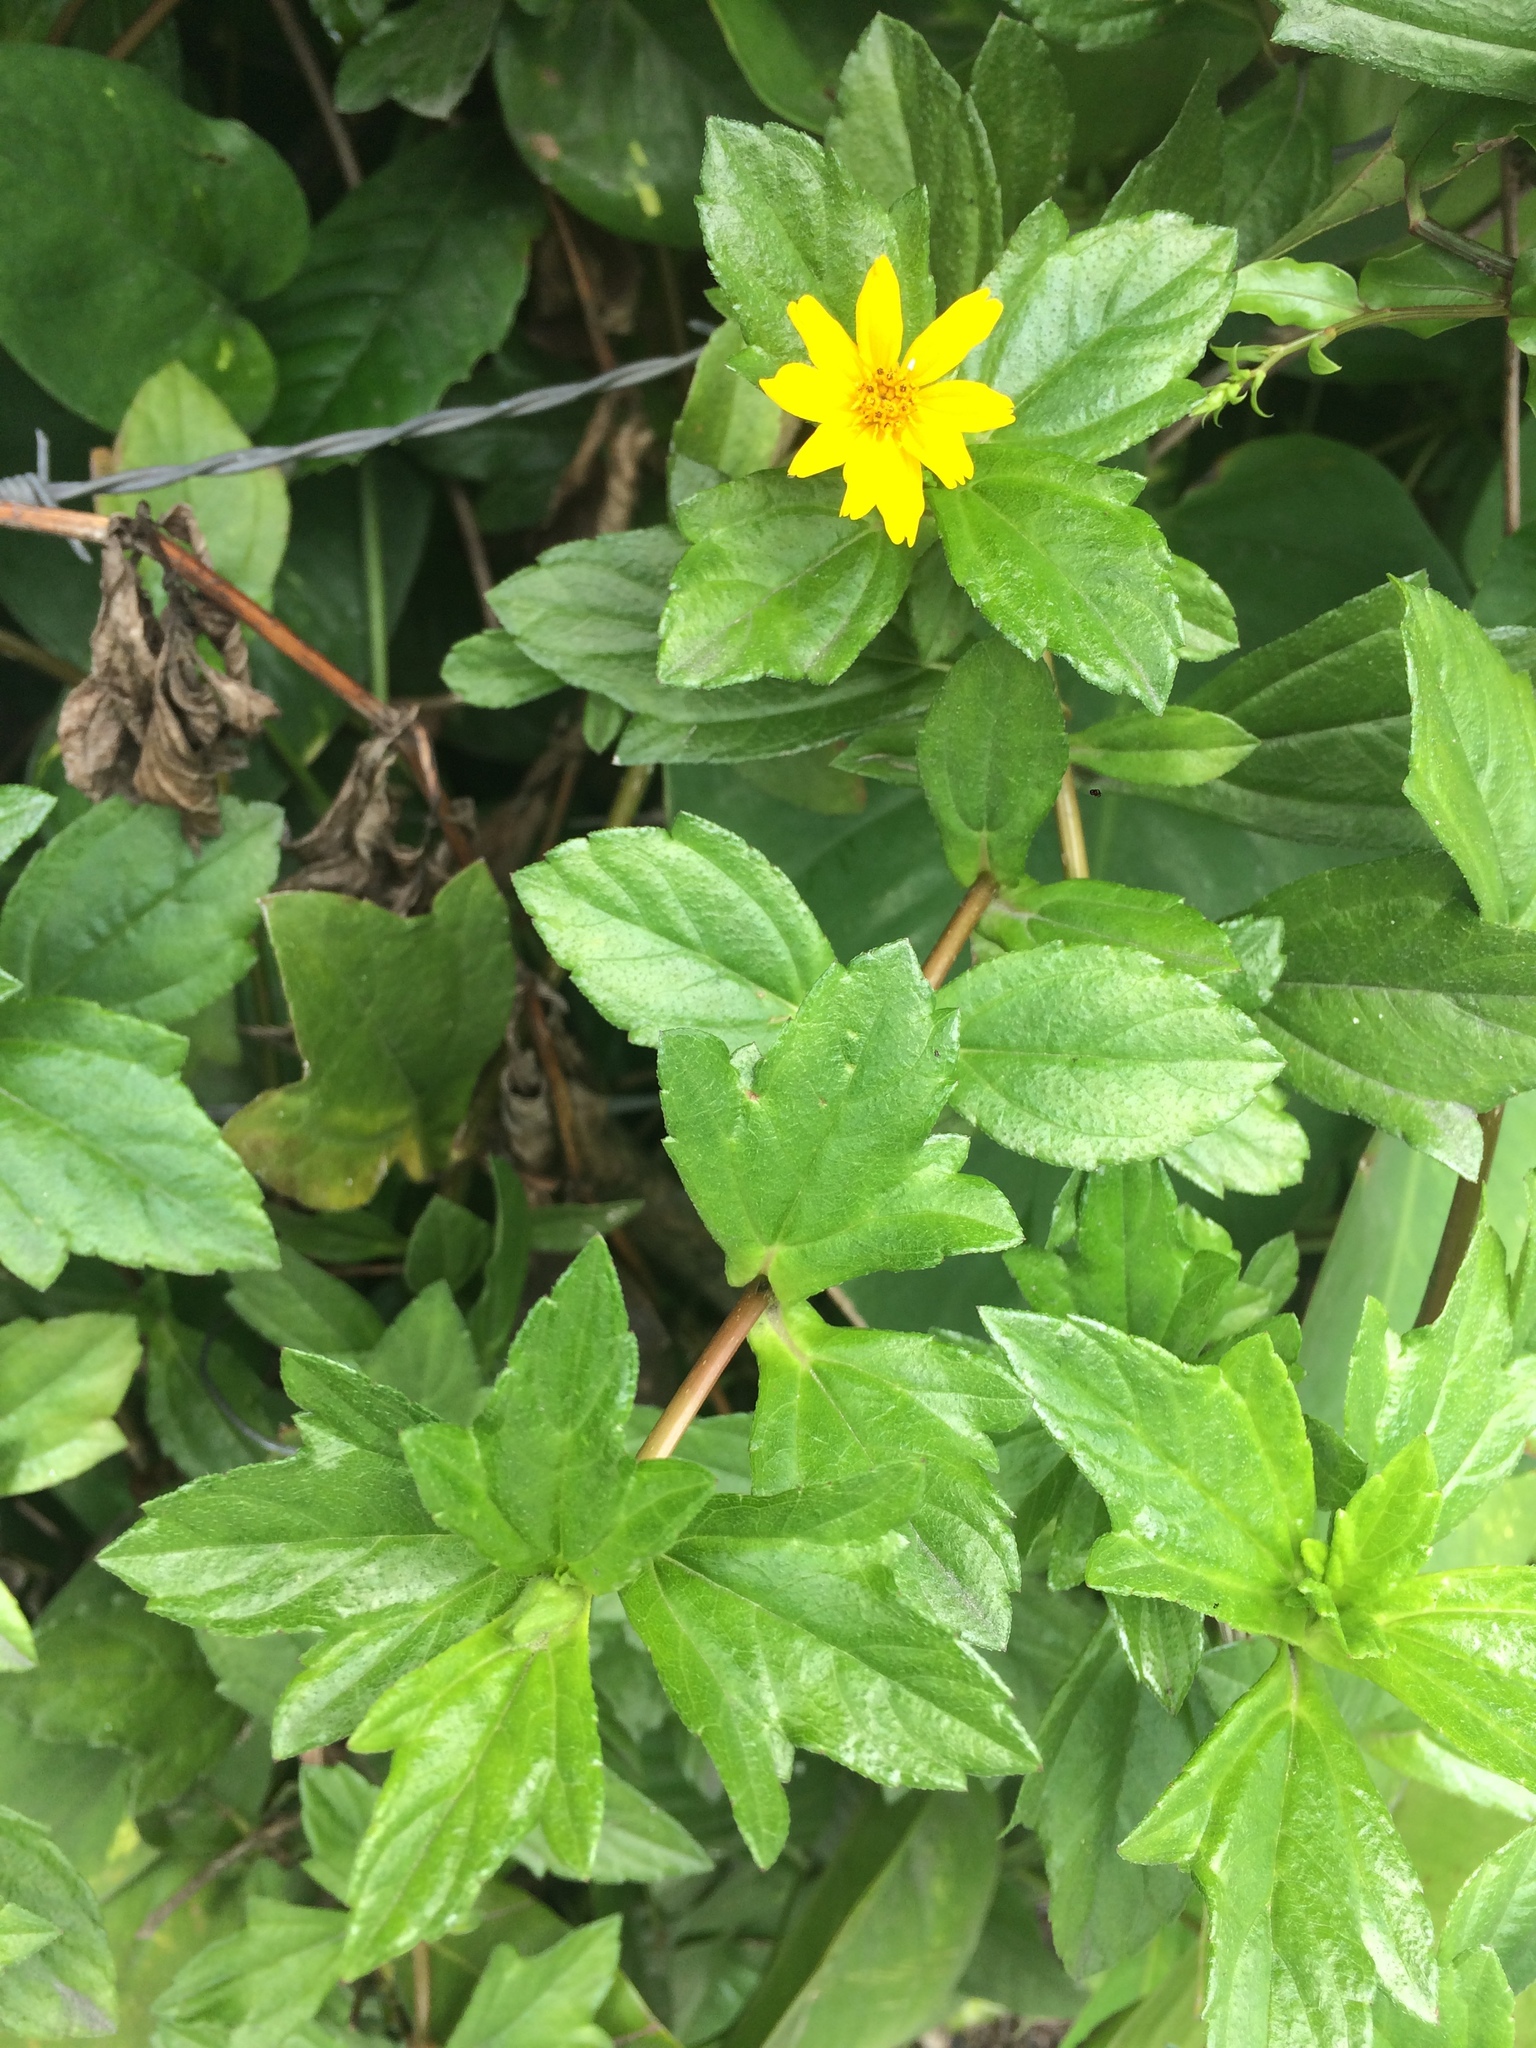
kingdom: Plantae
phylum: Tracheophyta
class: Magnoliopsida
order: Asterales
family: Asteraceae
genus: Sphagneticola
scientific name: Sphagneticola trilobata
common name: Bay biscayne creeping-oxeye
